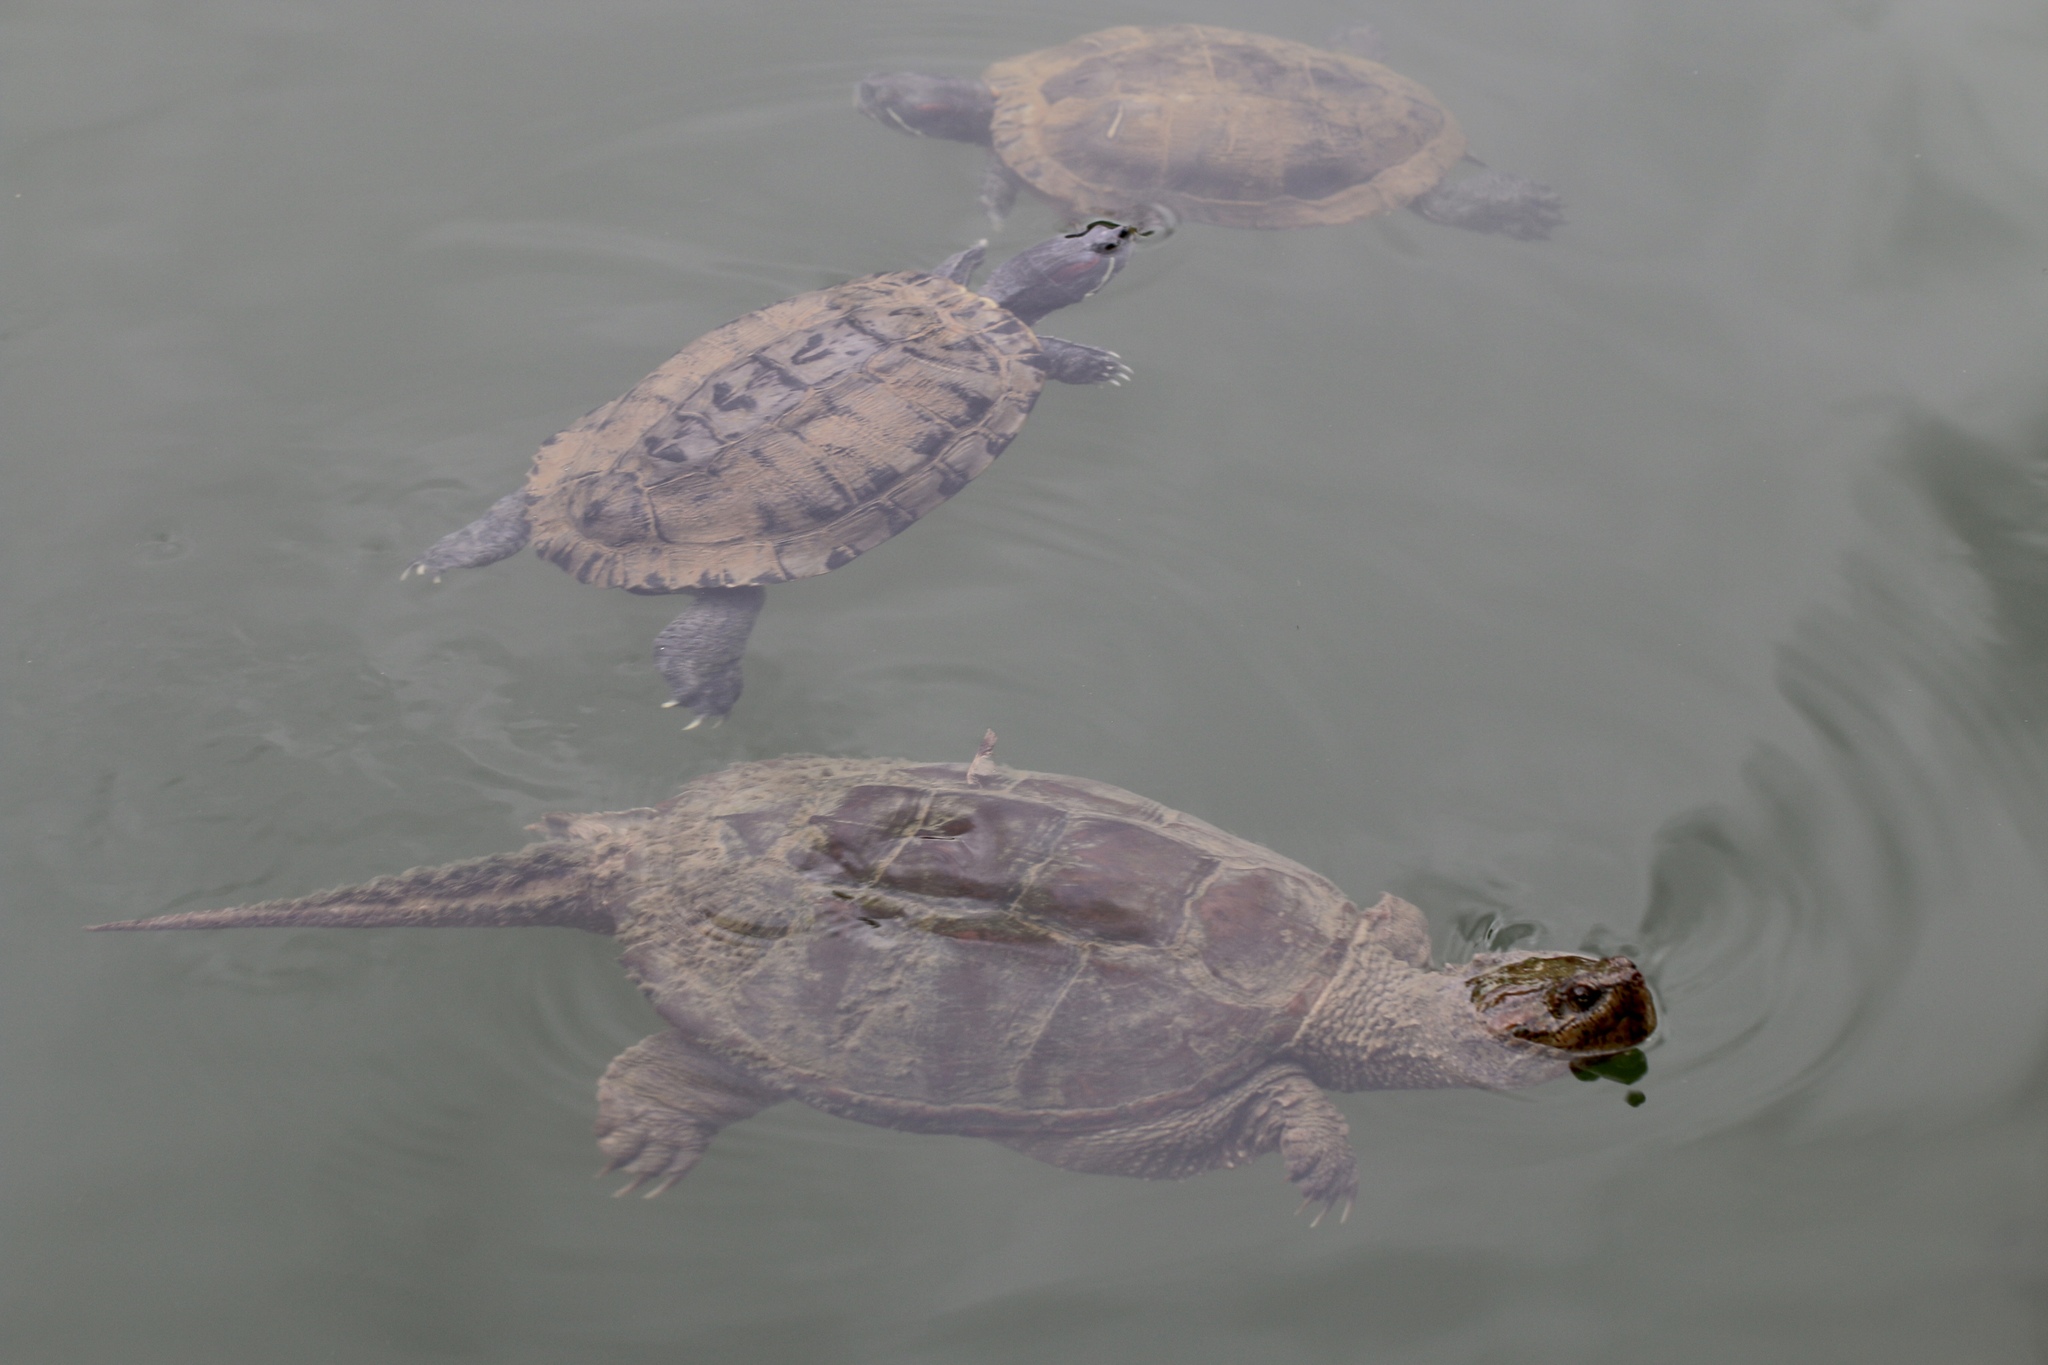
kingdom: Animalia
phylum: Chordata
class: Testudines
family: Emydidae
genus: Trachemys
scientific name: Trachemys scripta
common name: Slider
